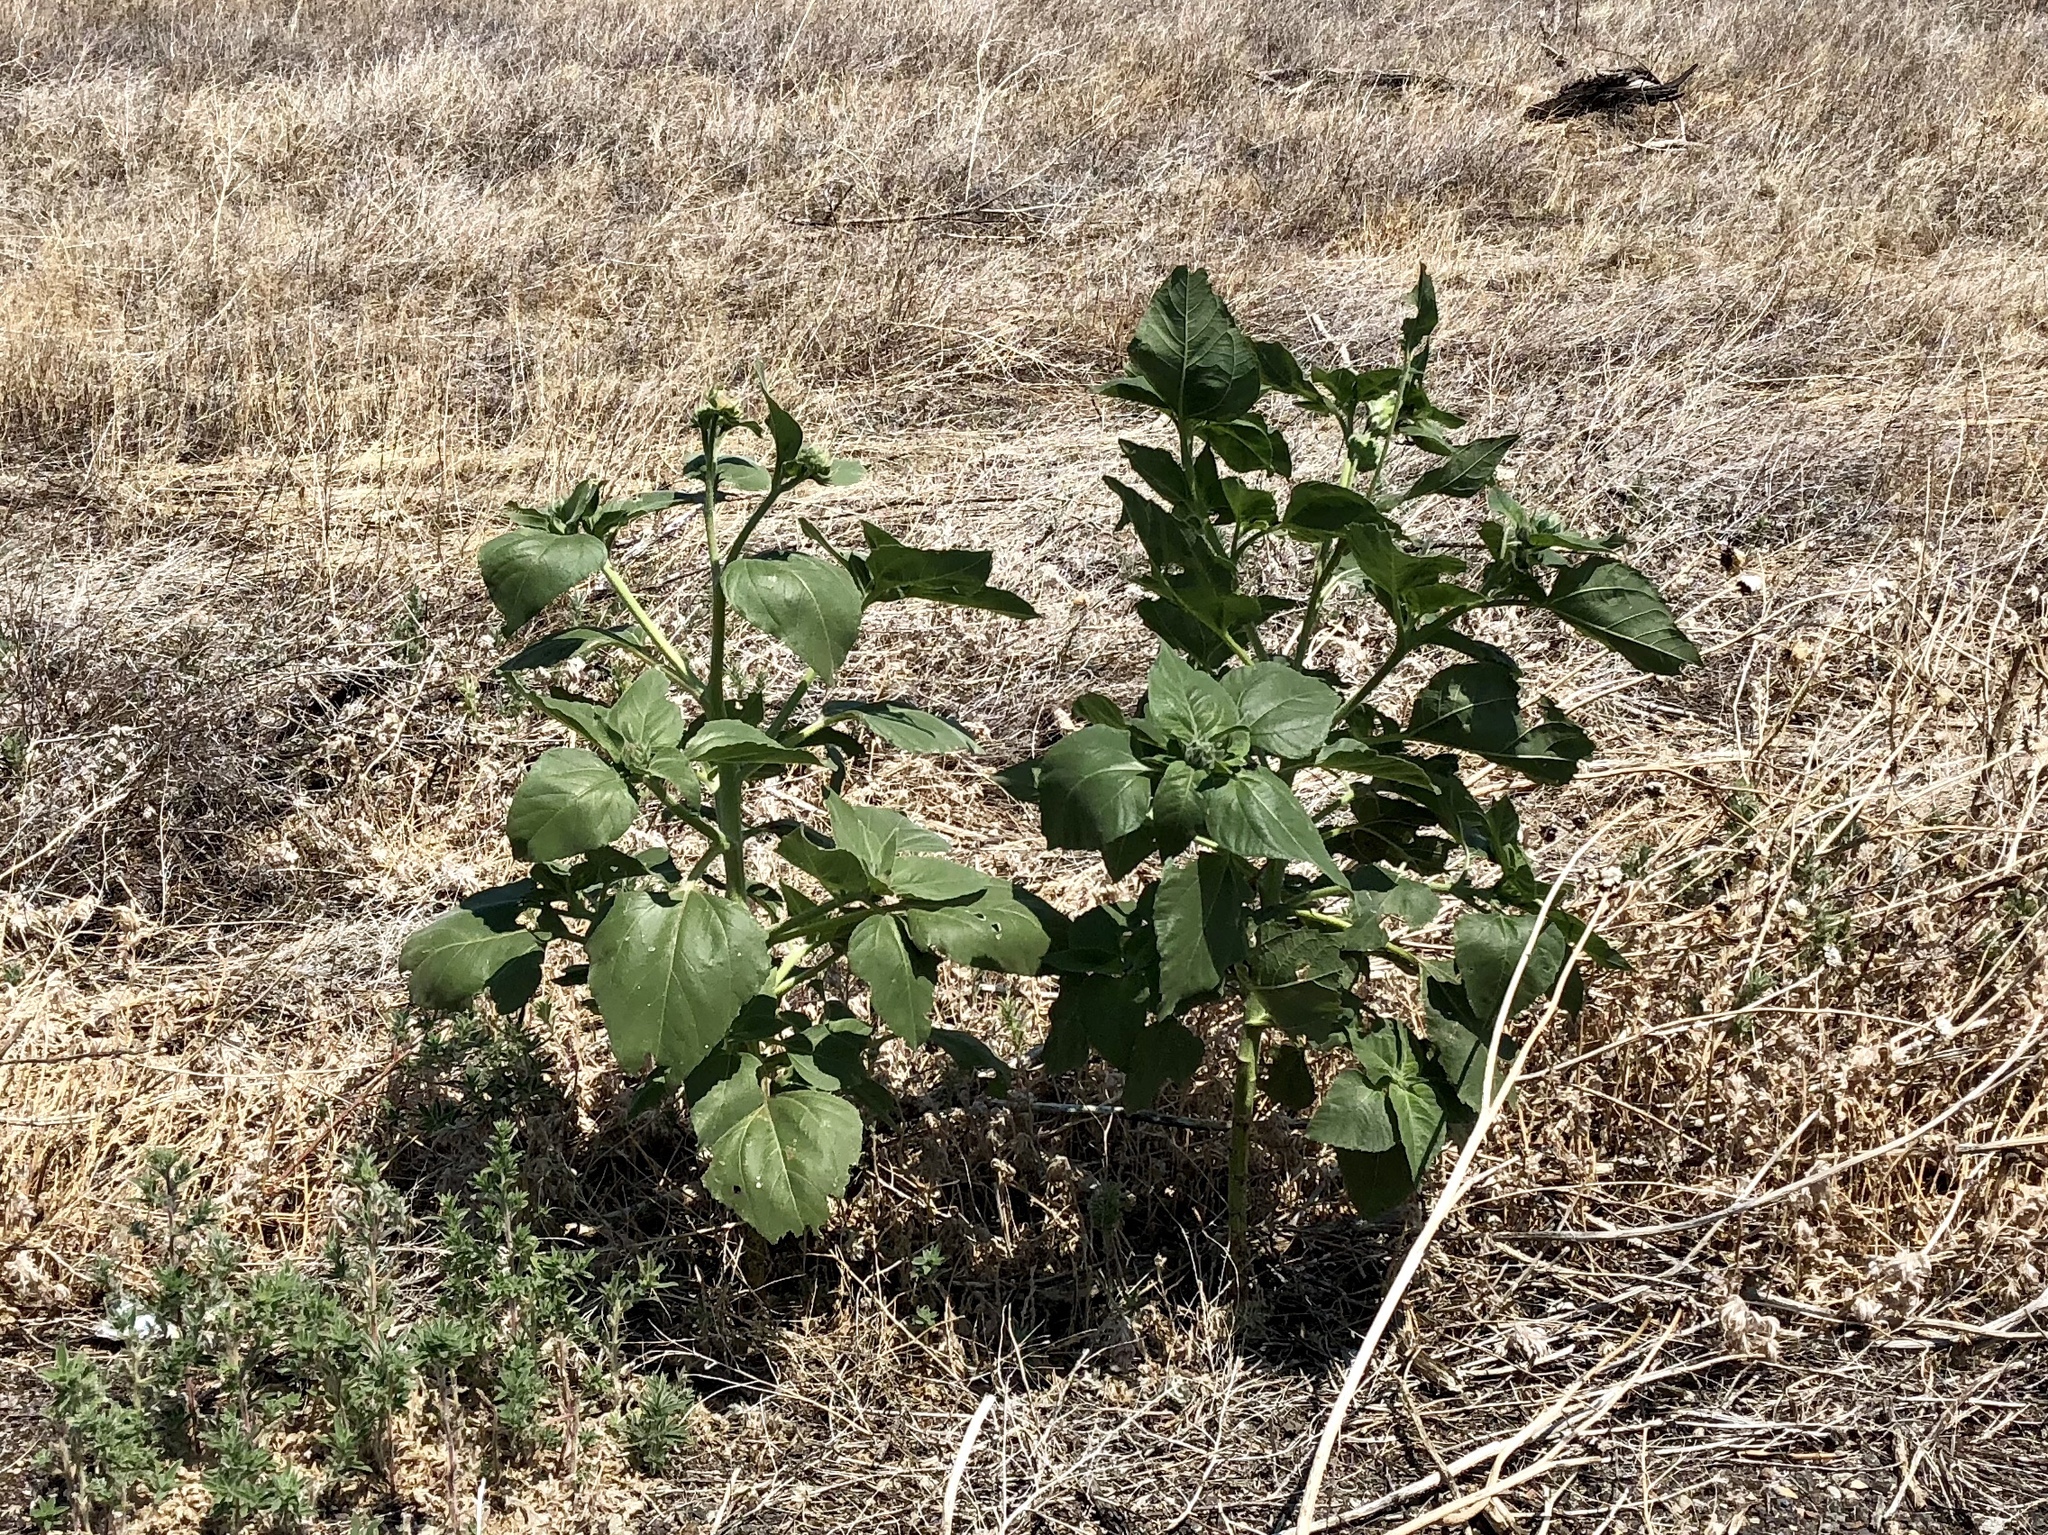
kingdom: Plantae
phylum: Tracheophyta
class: Magnoliopsida
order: Asterales
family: Asteraceae
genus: Helianthus
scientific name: Helianthus annuus
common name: Sunflower
